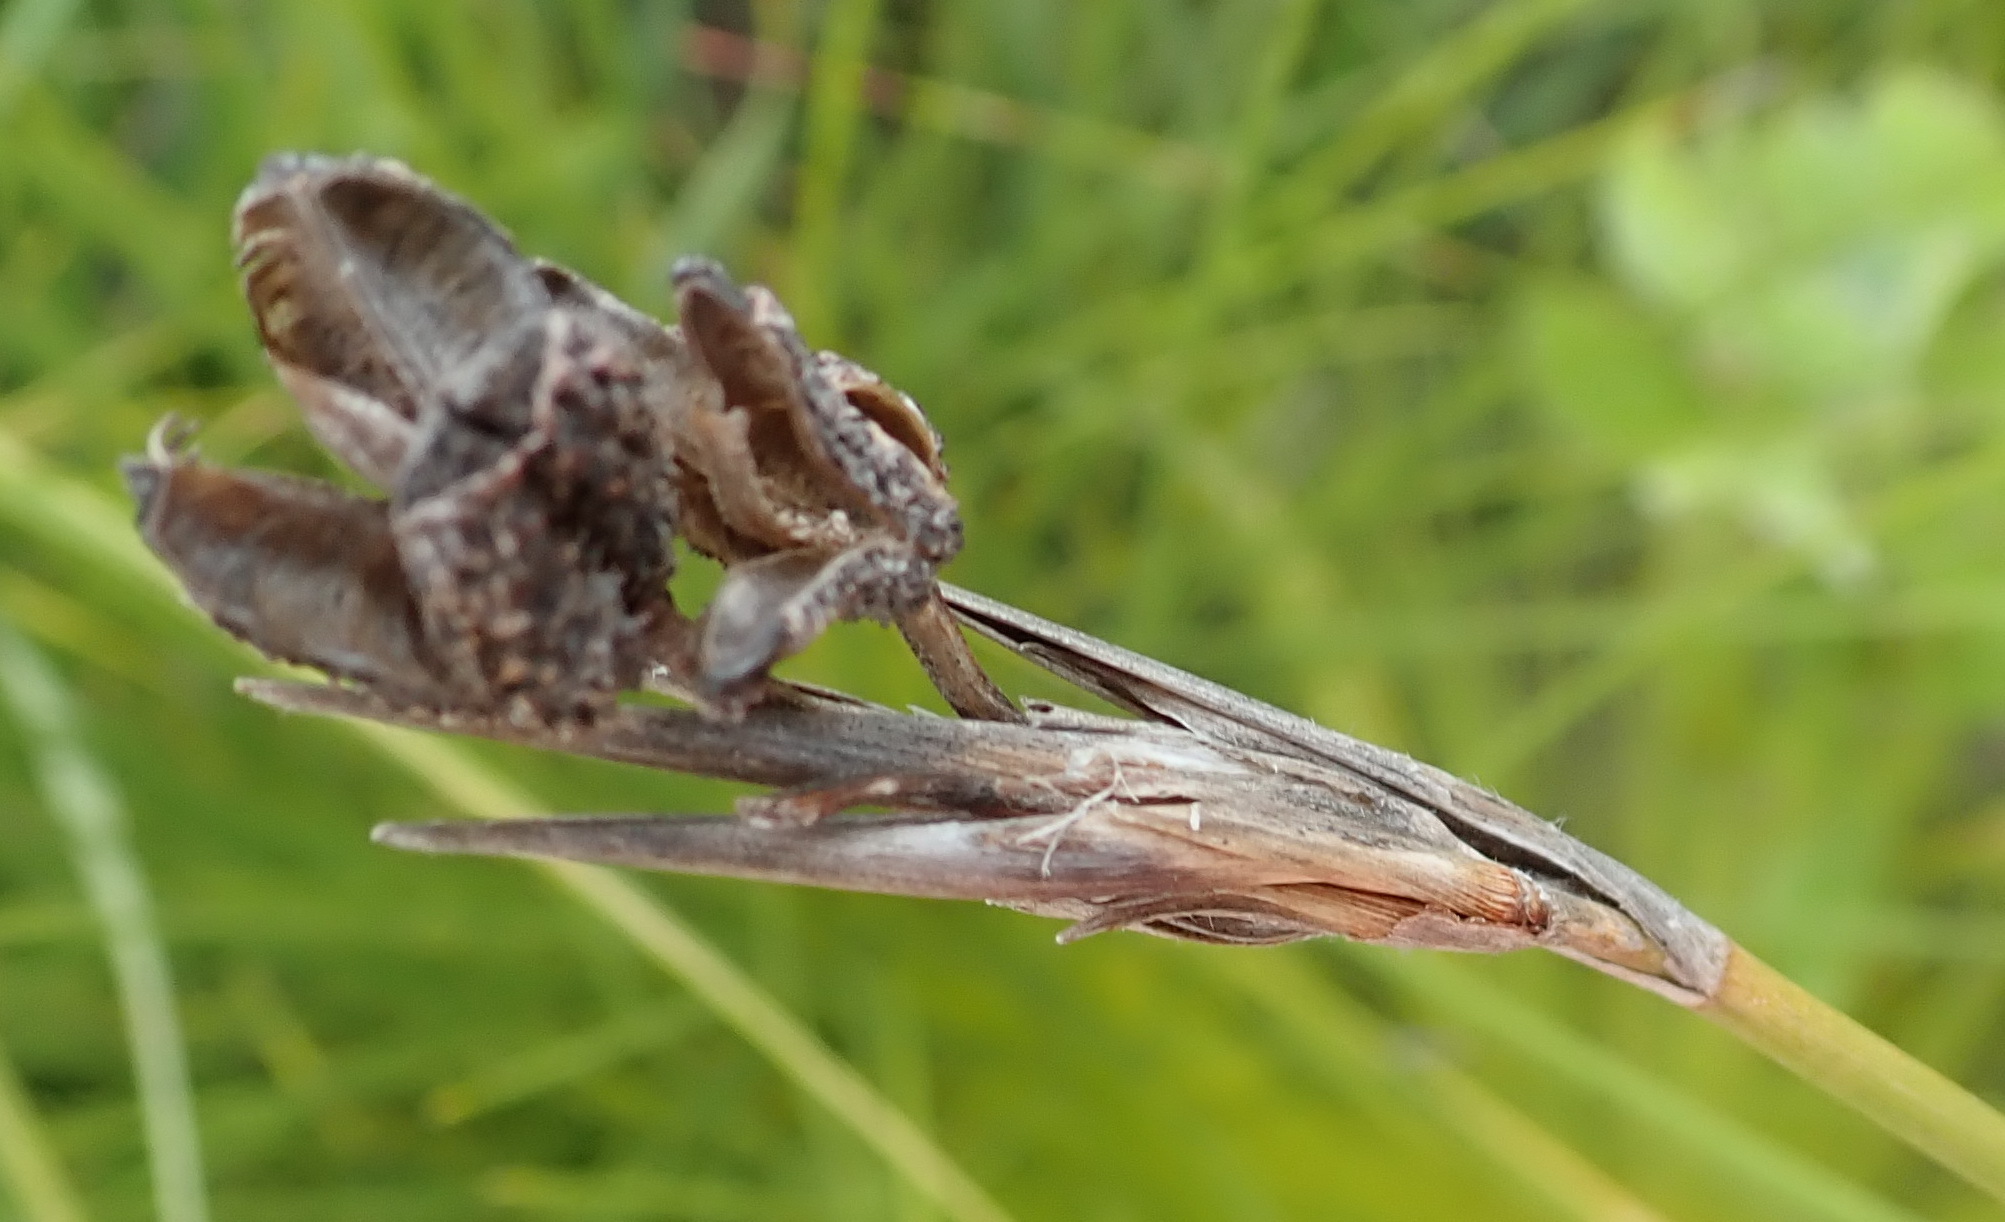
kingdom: Plantae
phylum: Tracheophyta
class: Liliopsida
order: Asparagales
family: Iridaceae
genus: Bobartia
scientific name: Bobartia aphylla
